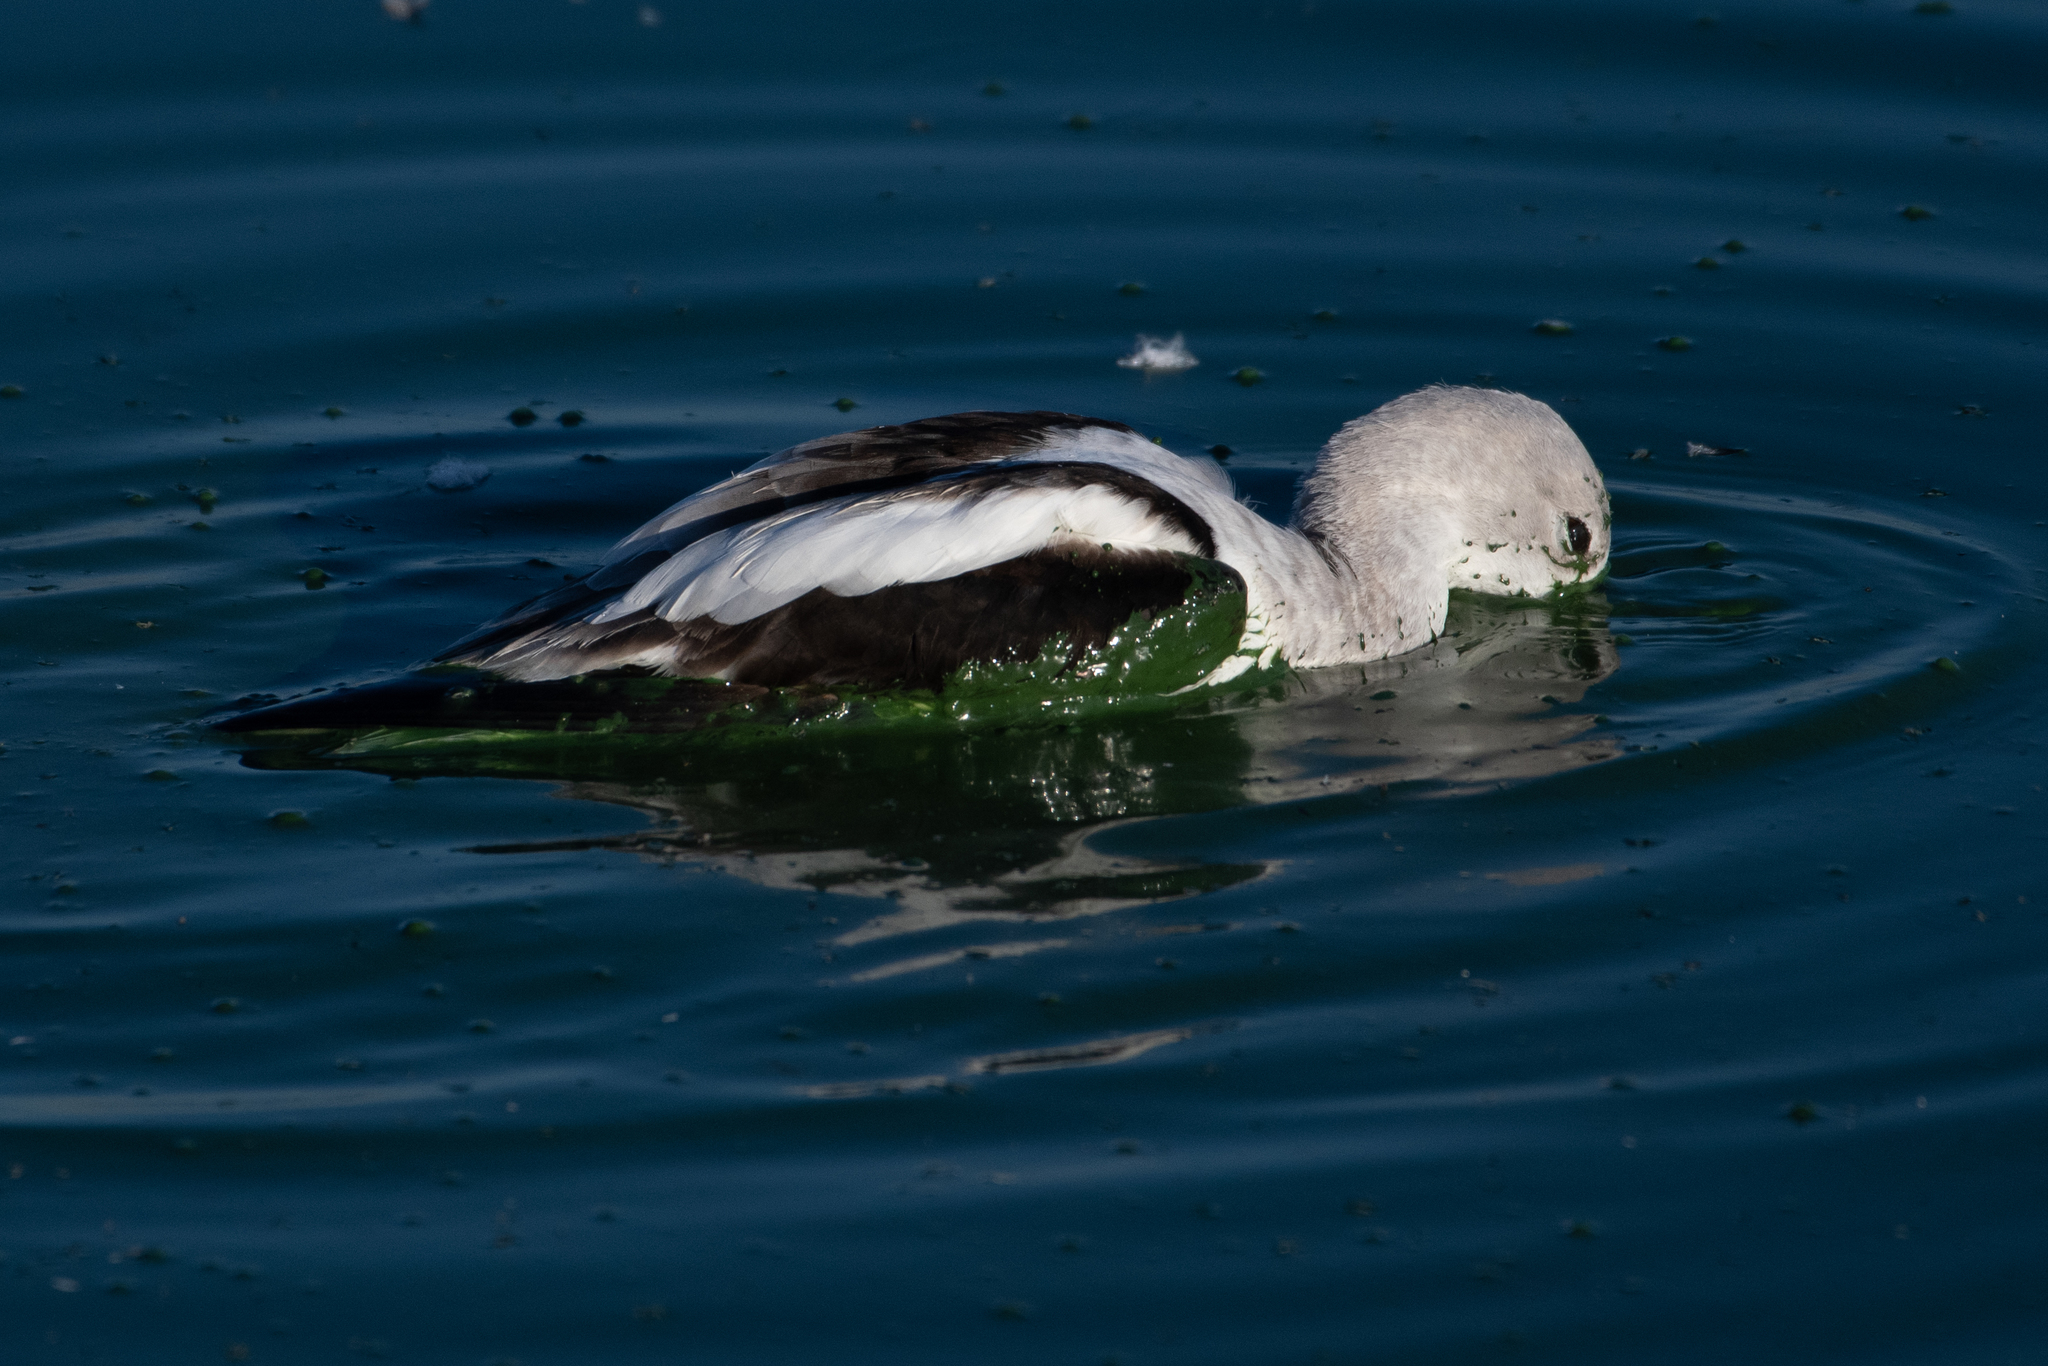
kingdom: Animalia
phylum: Chordata
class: Aves
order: Charadriiformes
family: Recurvirostridae
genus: Recurvirostra
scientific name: Recurvirostra americana
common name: American avocet
